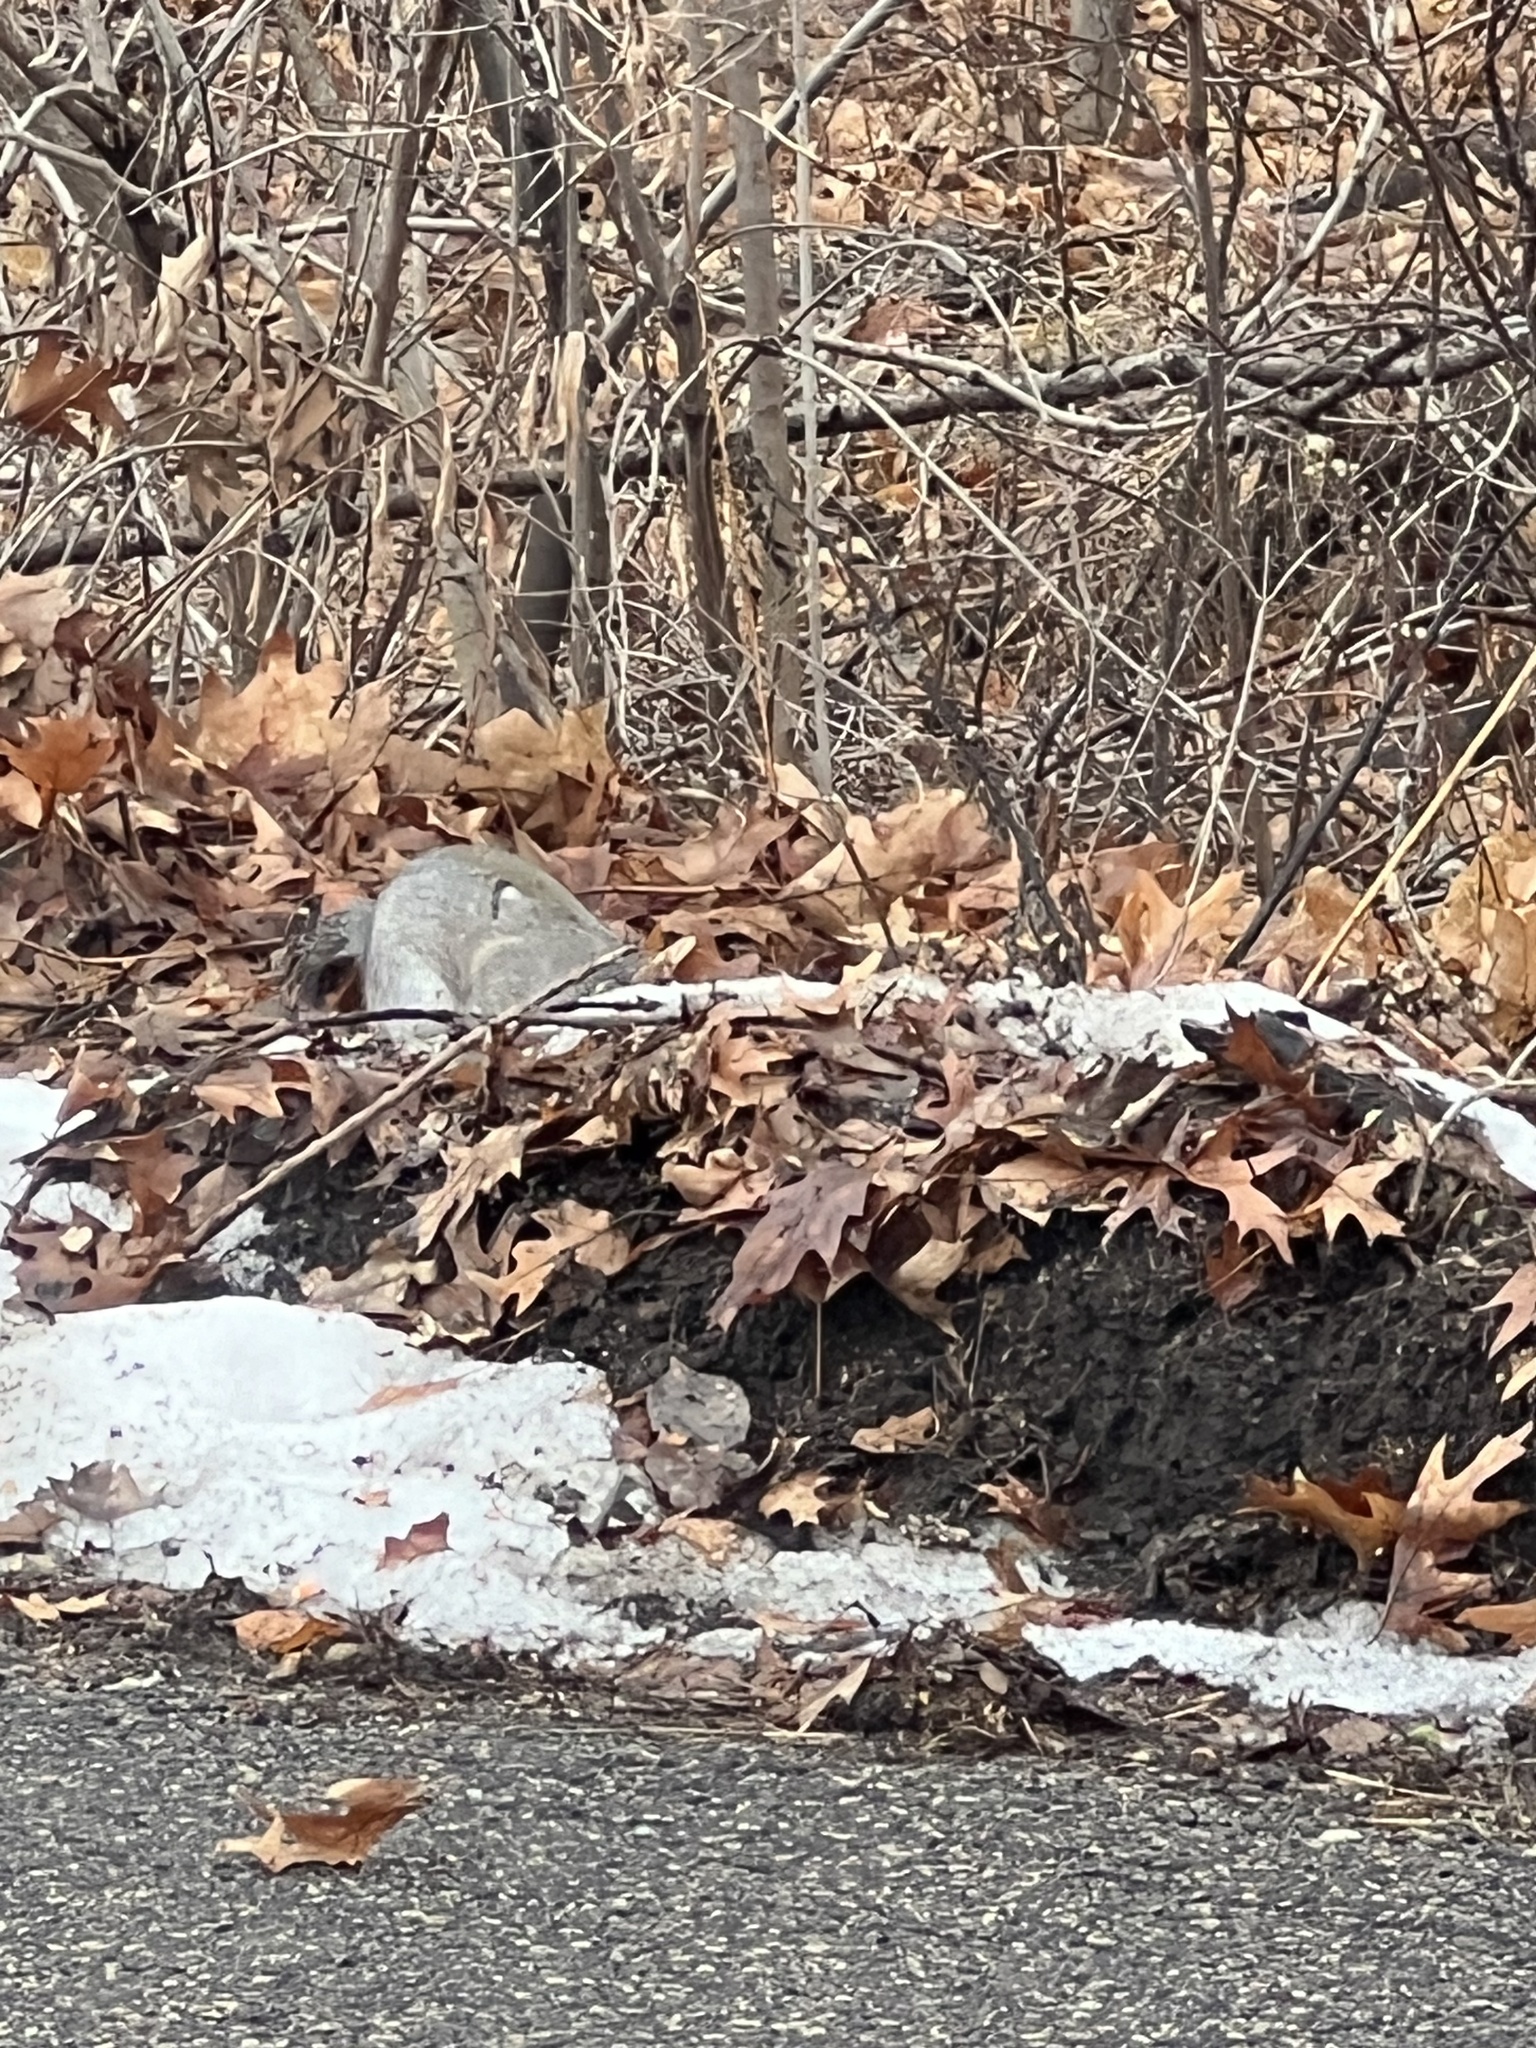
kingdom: Animalia
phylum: Chordata
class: Mammalia
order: Rodentia
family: Sciuridae
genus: Sciurus
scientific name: Sciurus carolinensis
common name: Eastern gray squirrel
